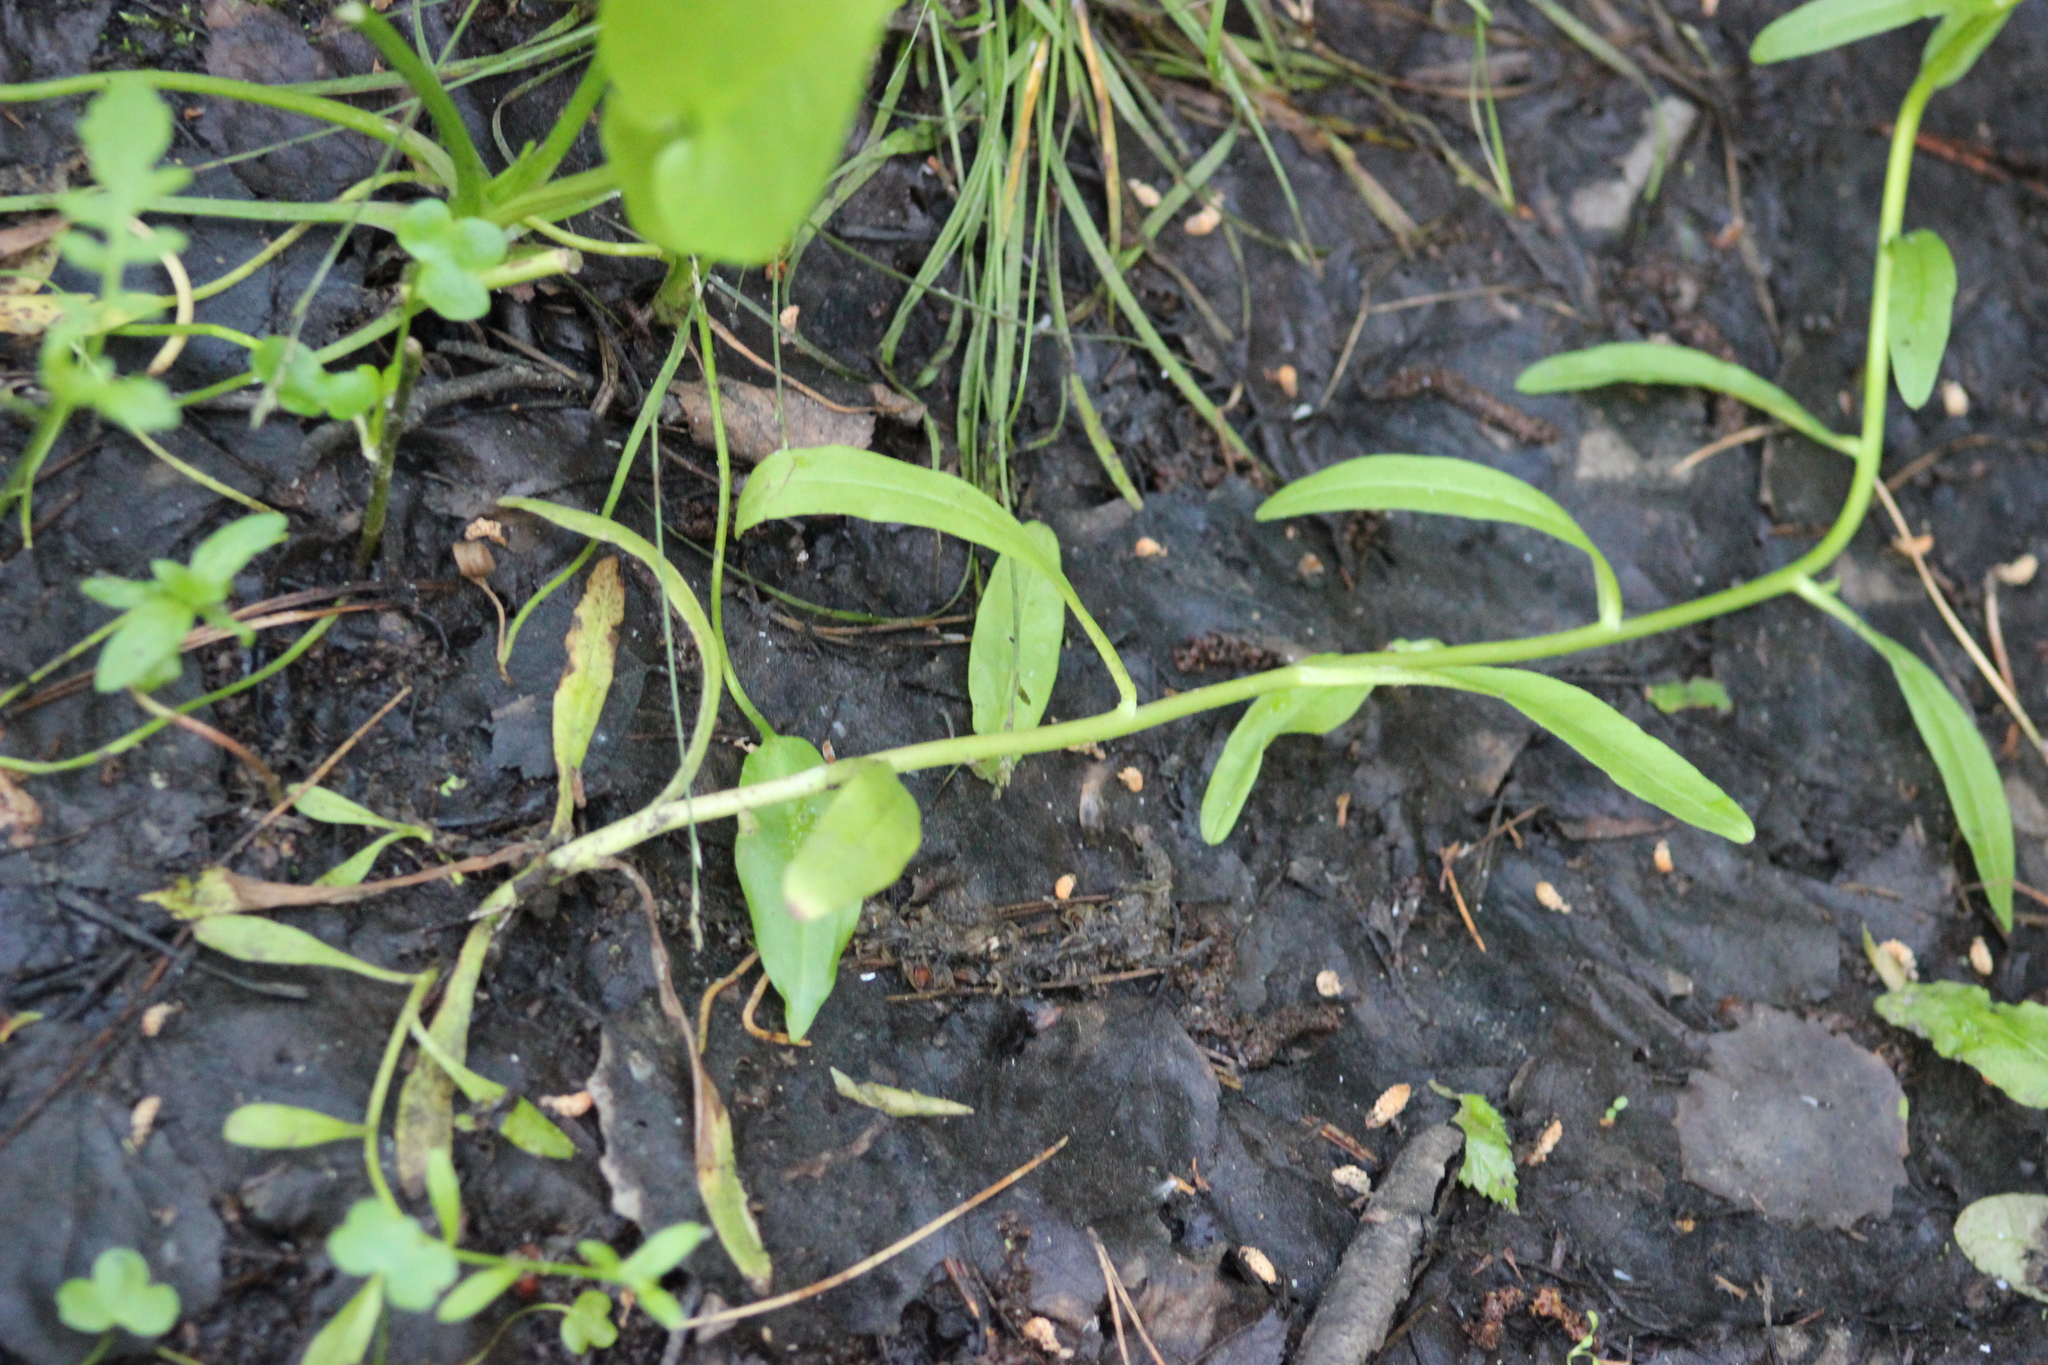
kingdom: Plantae
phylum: Tracheophyta
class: Magnoliopsida
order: Boraginales
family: Boraginaceae
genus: Myosotis
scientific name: Myosotis scorpioides
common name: Water forget-me-not
